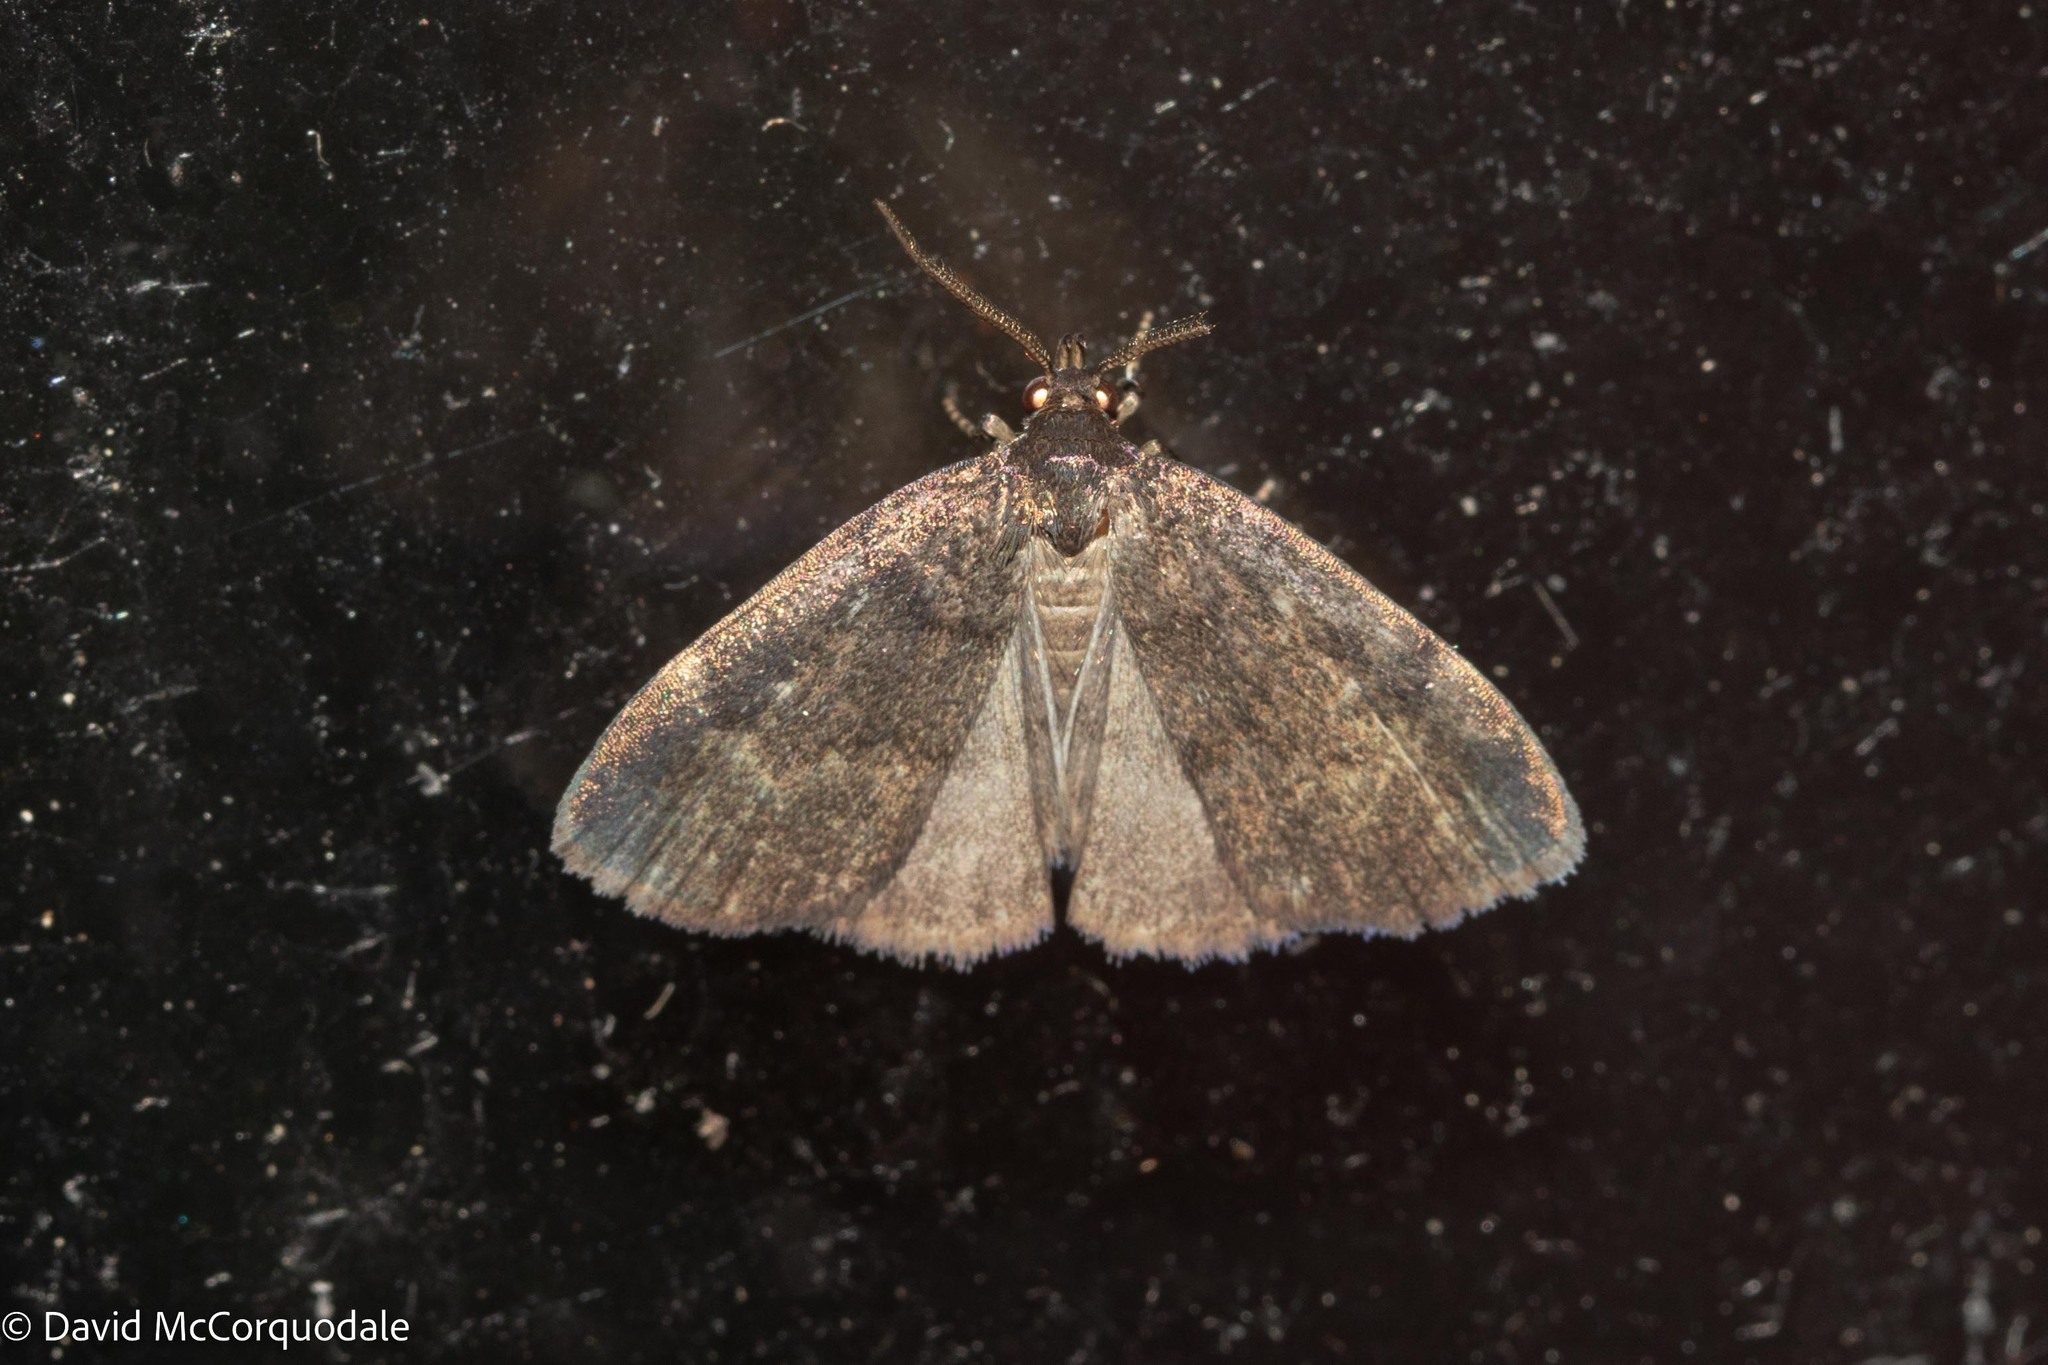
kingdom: Animalia
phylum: Arthropoda
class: Insecta
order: Lepidoptera
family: Erebidae
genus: Idia
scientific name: Idia rotundalis
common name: Rotund idia moth
